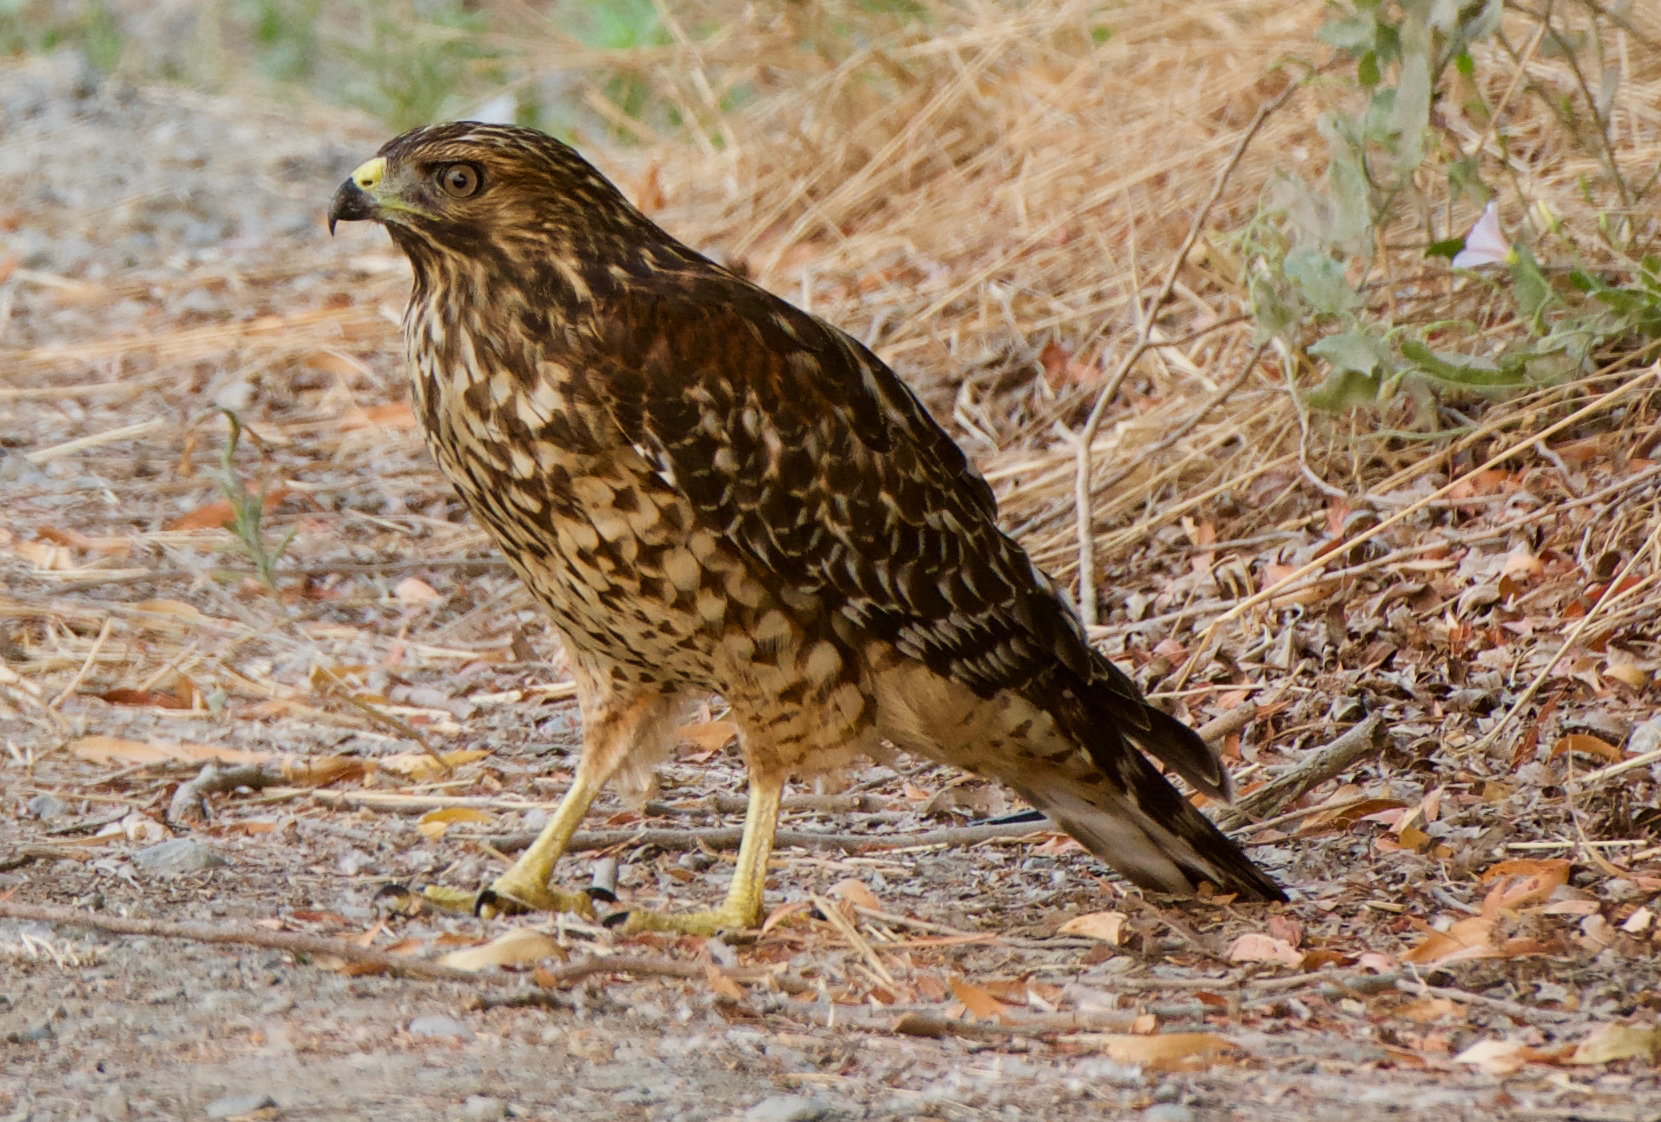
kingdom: Animalia
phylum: Chordata
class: Aves
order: Accipitriformes
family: Accipitridae
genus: Buteo
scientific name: Buteo lineatus
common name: Red-shouldered hawk
